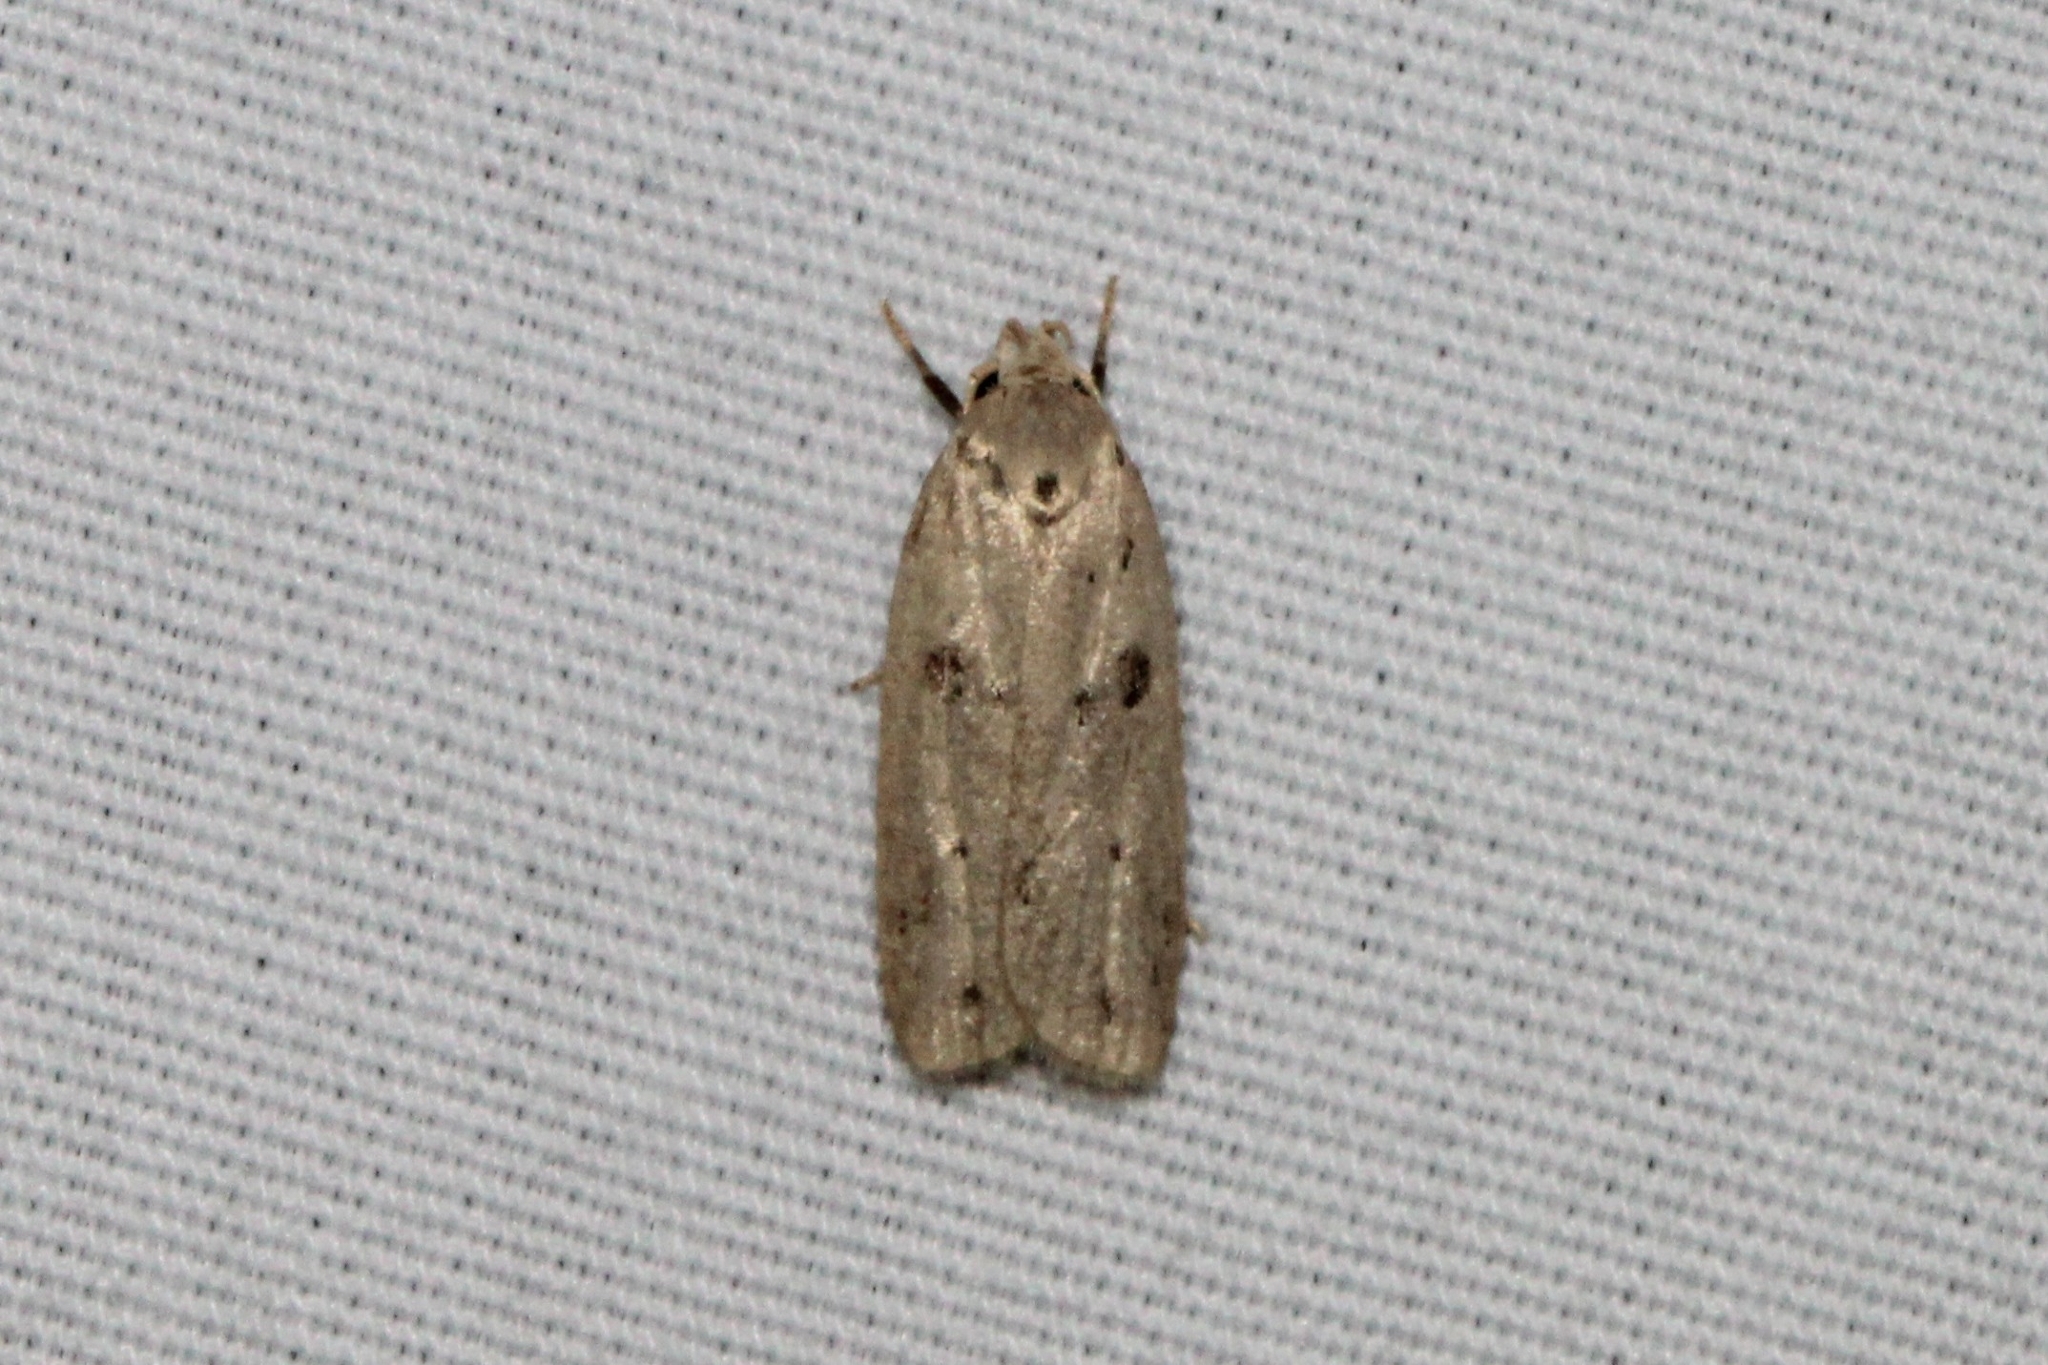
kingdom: Animalia
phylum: Arthropoda
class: Insecta
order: Lepidoptera
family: Peleopodidae
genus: Scythropiodes
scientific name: Scythropiodes issikii
